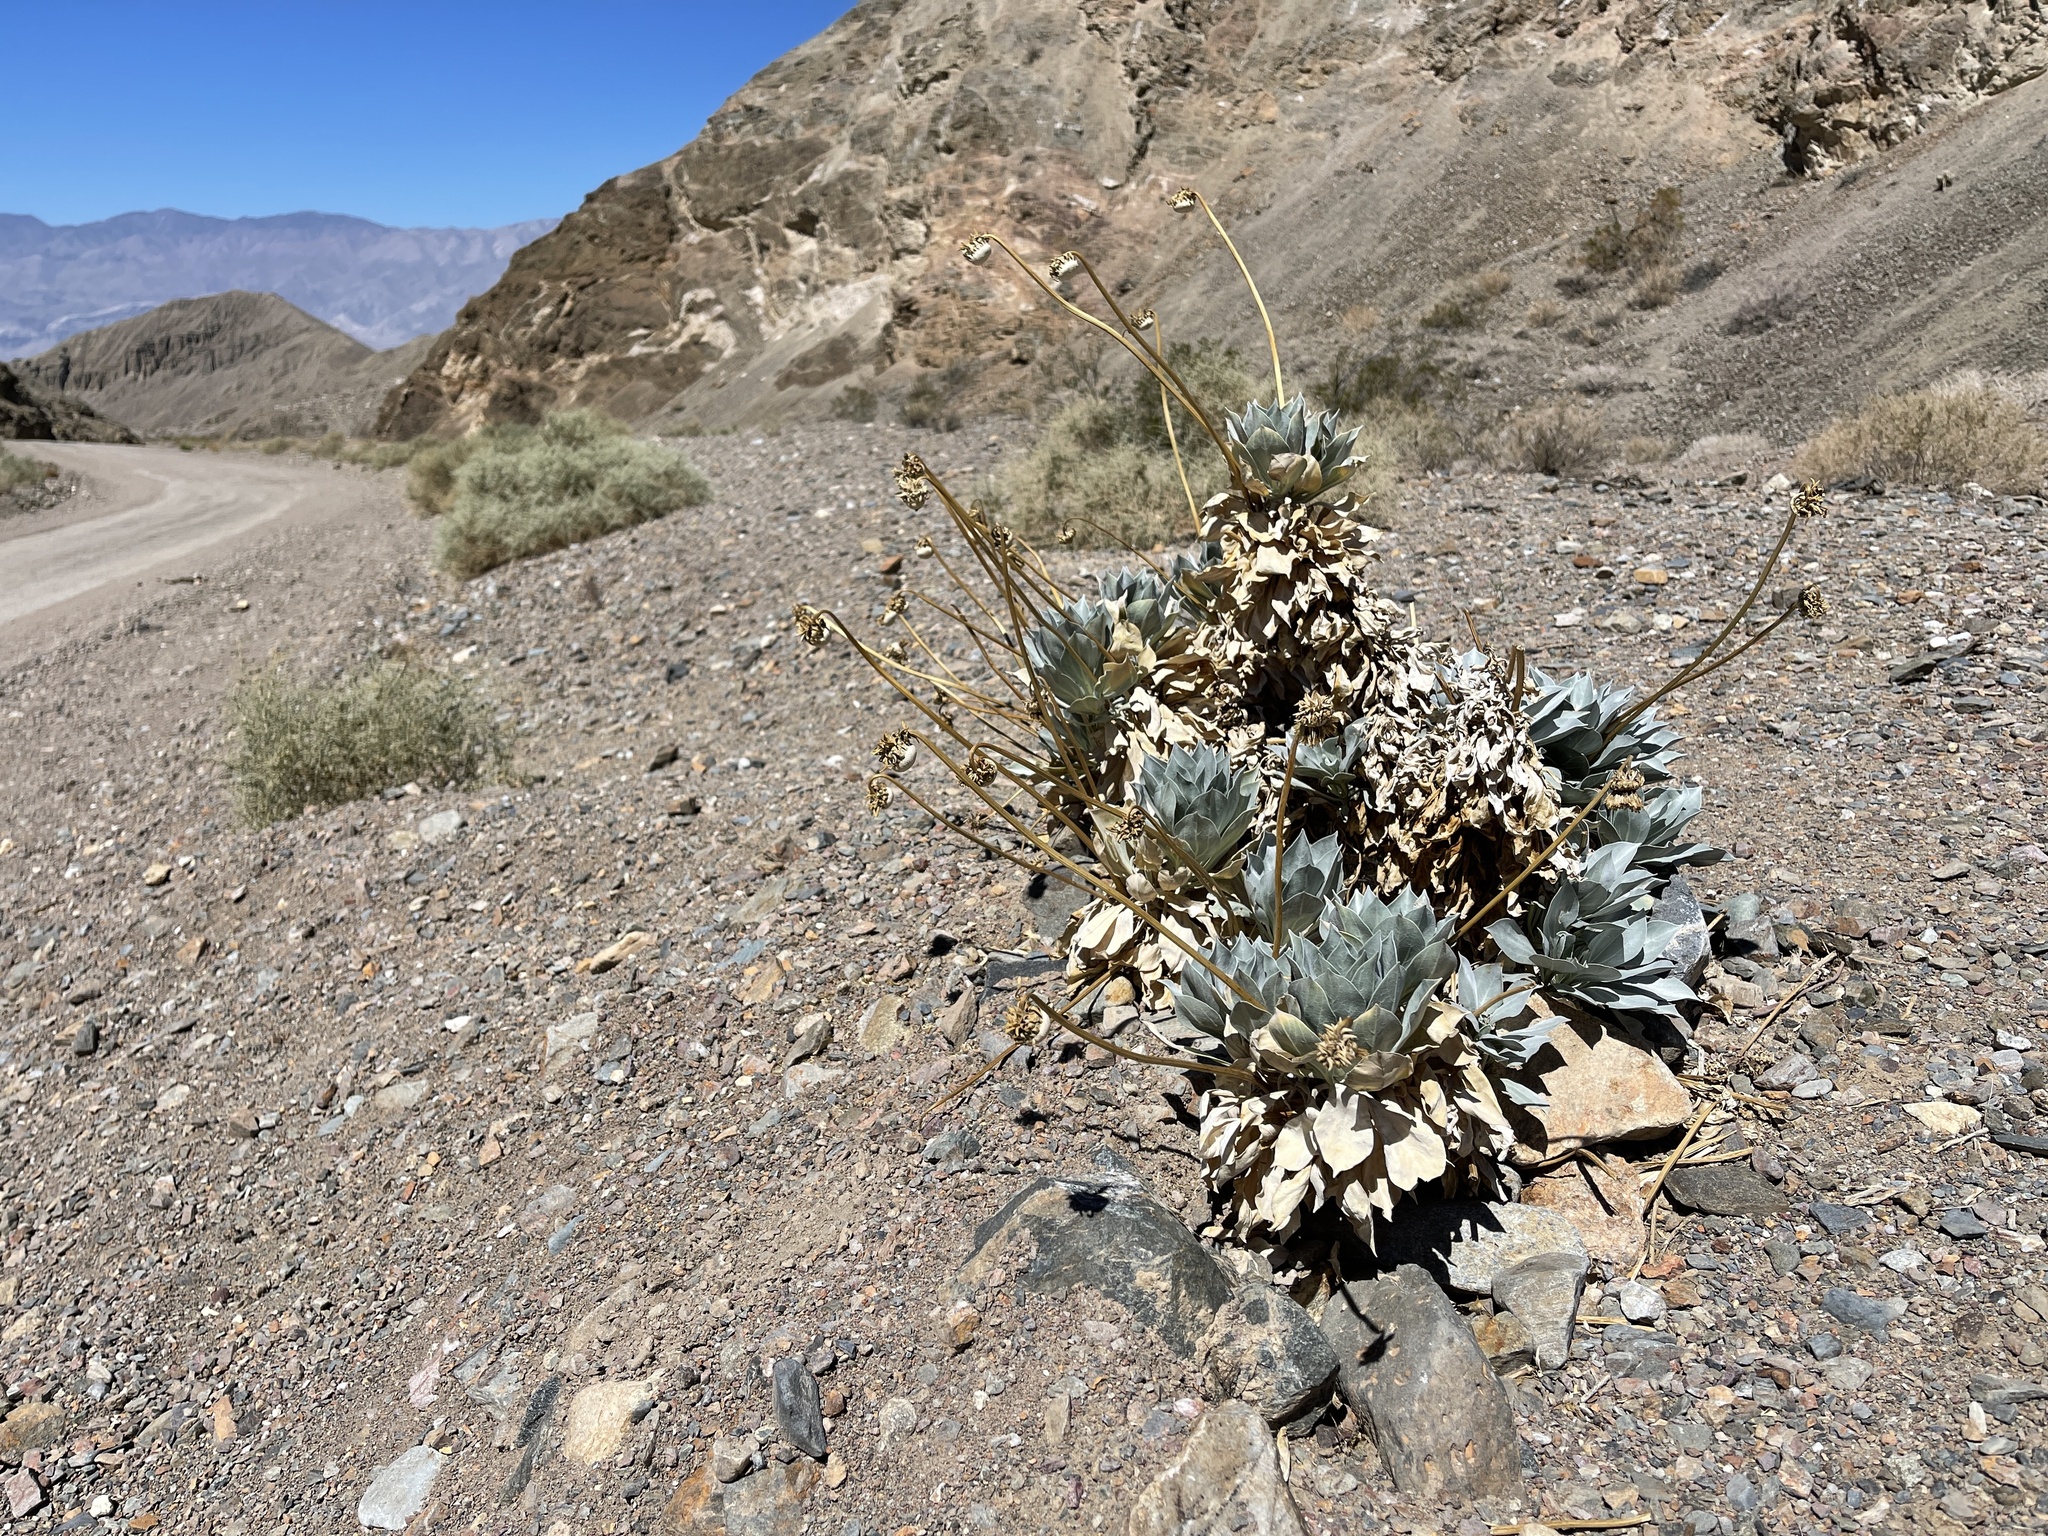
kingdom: Plantae
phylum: Tracheophyta
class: Magnoliopsida
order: Asterales
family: Asteraceae
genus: Enceliopsis
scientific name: Enceliopsis covillei
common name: Panamint daisy
